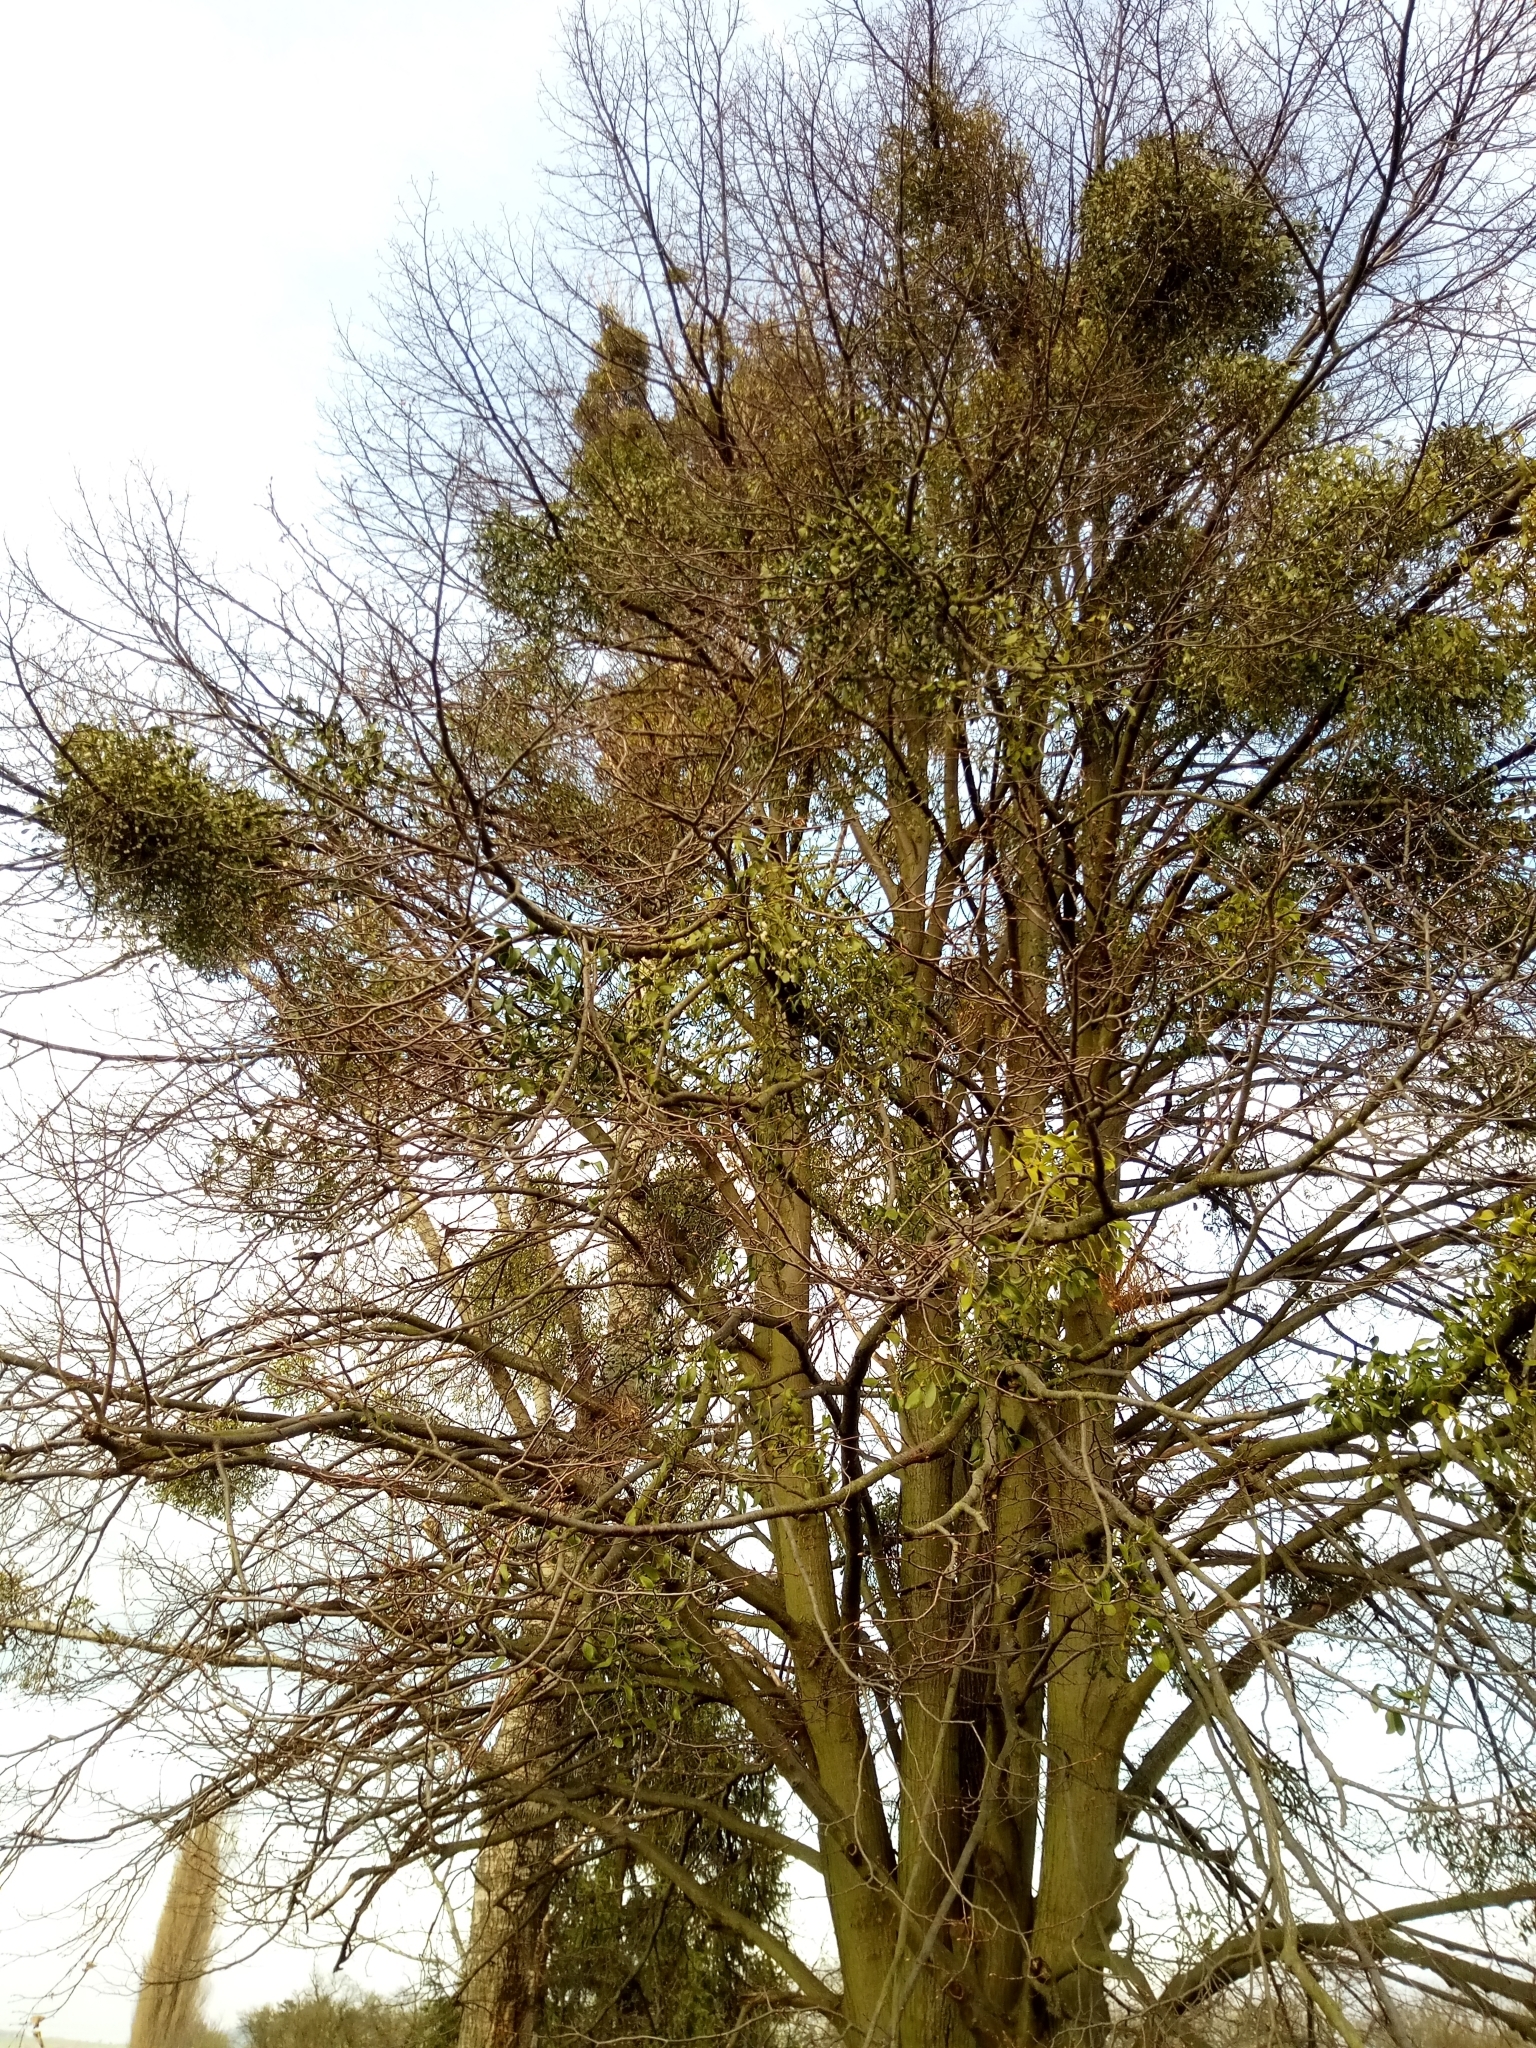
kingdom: Plantae
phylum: Tracheophyta
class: Magnoliopsida
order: Santalales
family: Viscaceae
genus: Viscum
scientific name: Viscum album
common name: Mistletoe
